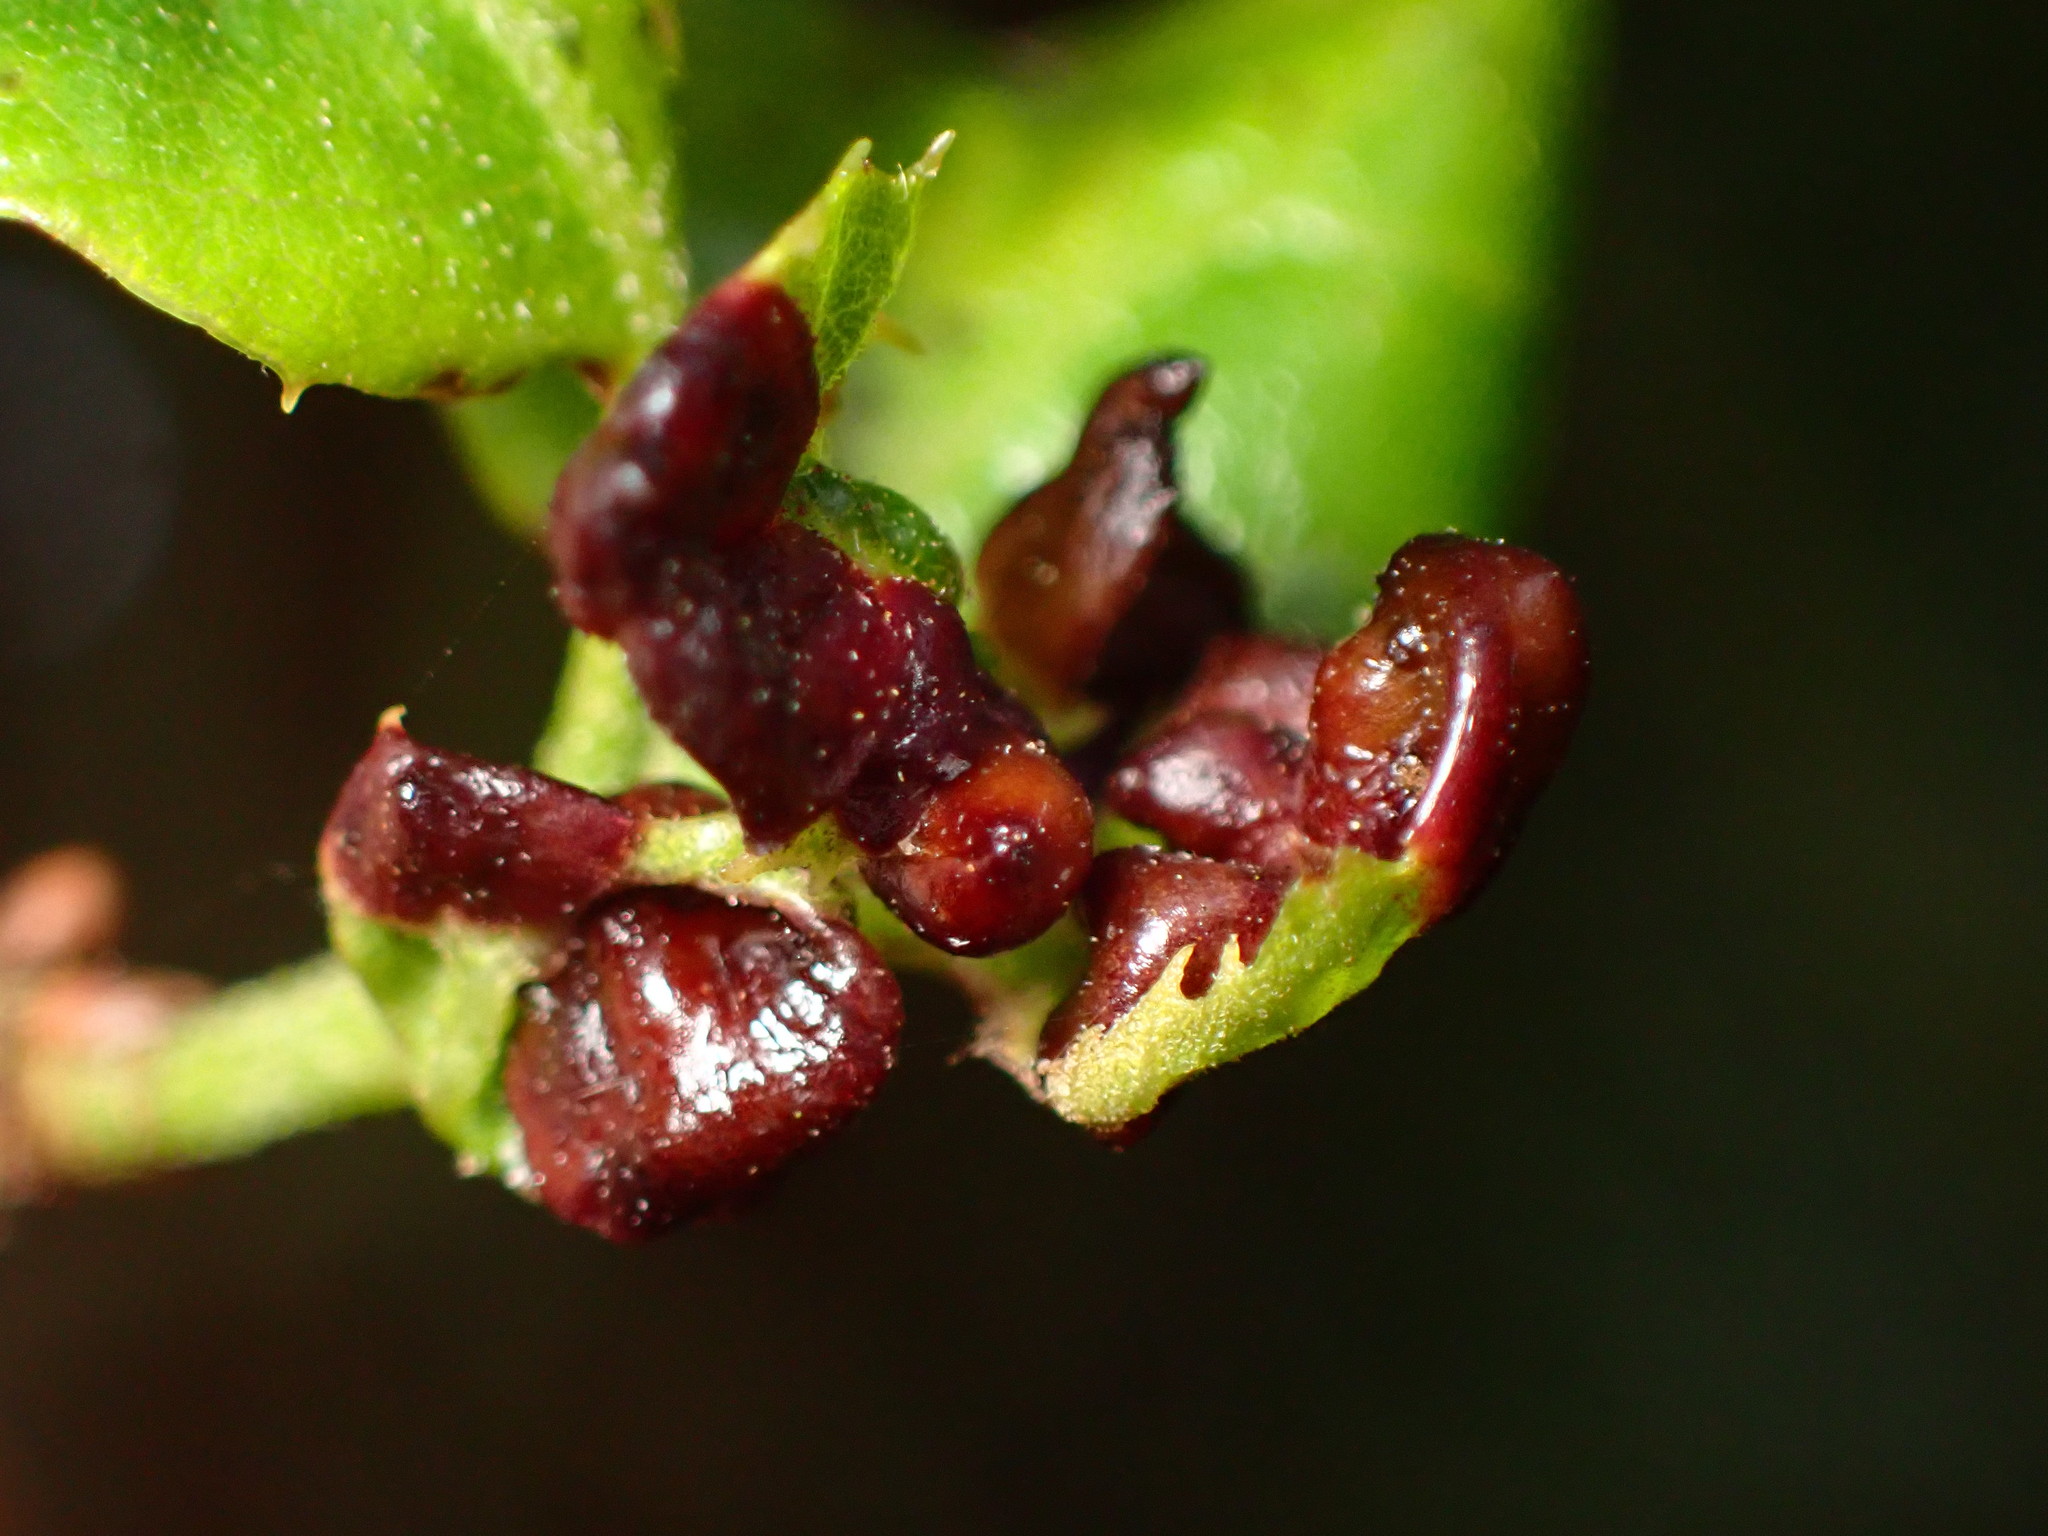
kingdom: Animalia
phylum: Arthropoda
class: Insecta
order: Hymenoptera
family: Cynipidae
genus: Dryocosmus
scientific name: Dryocosmus
